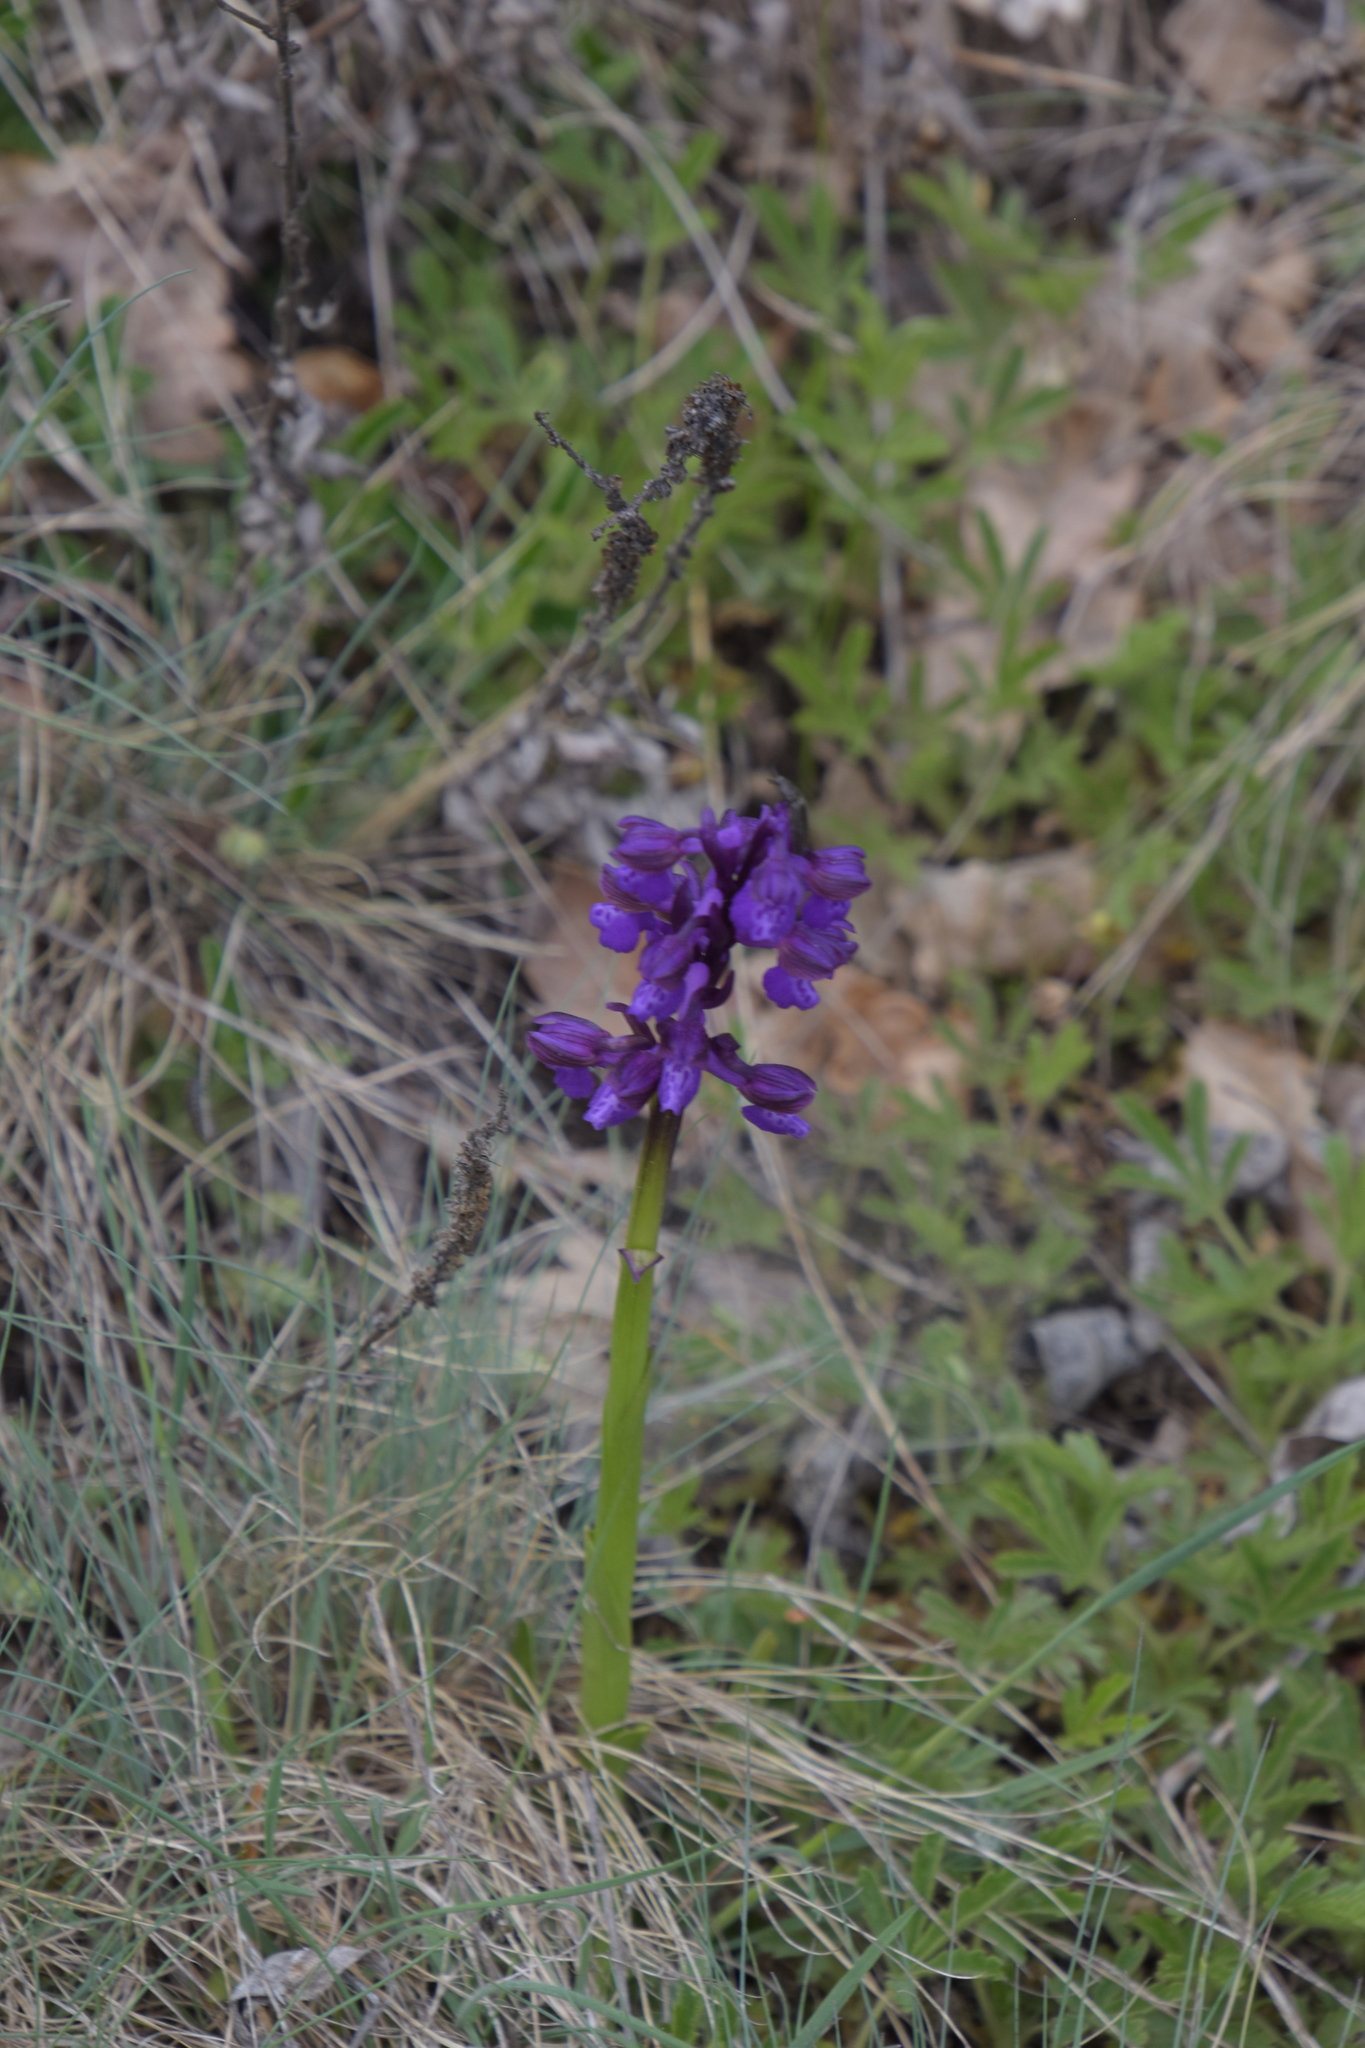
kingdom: Plantae
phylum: Tracheophyta
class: Liliopsida
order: Asparagales
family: Orchidaceae
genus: Anacamptis
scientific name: Anacamptis morio
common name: Green-winged orchid
